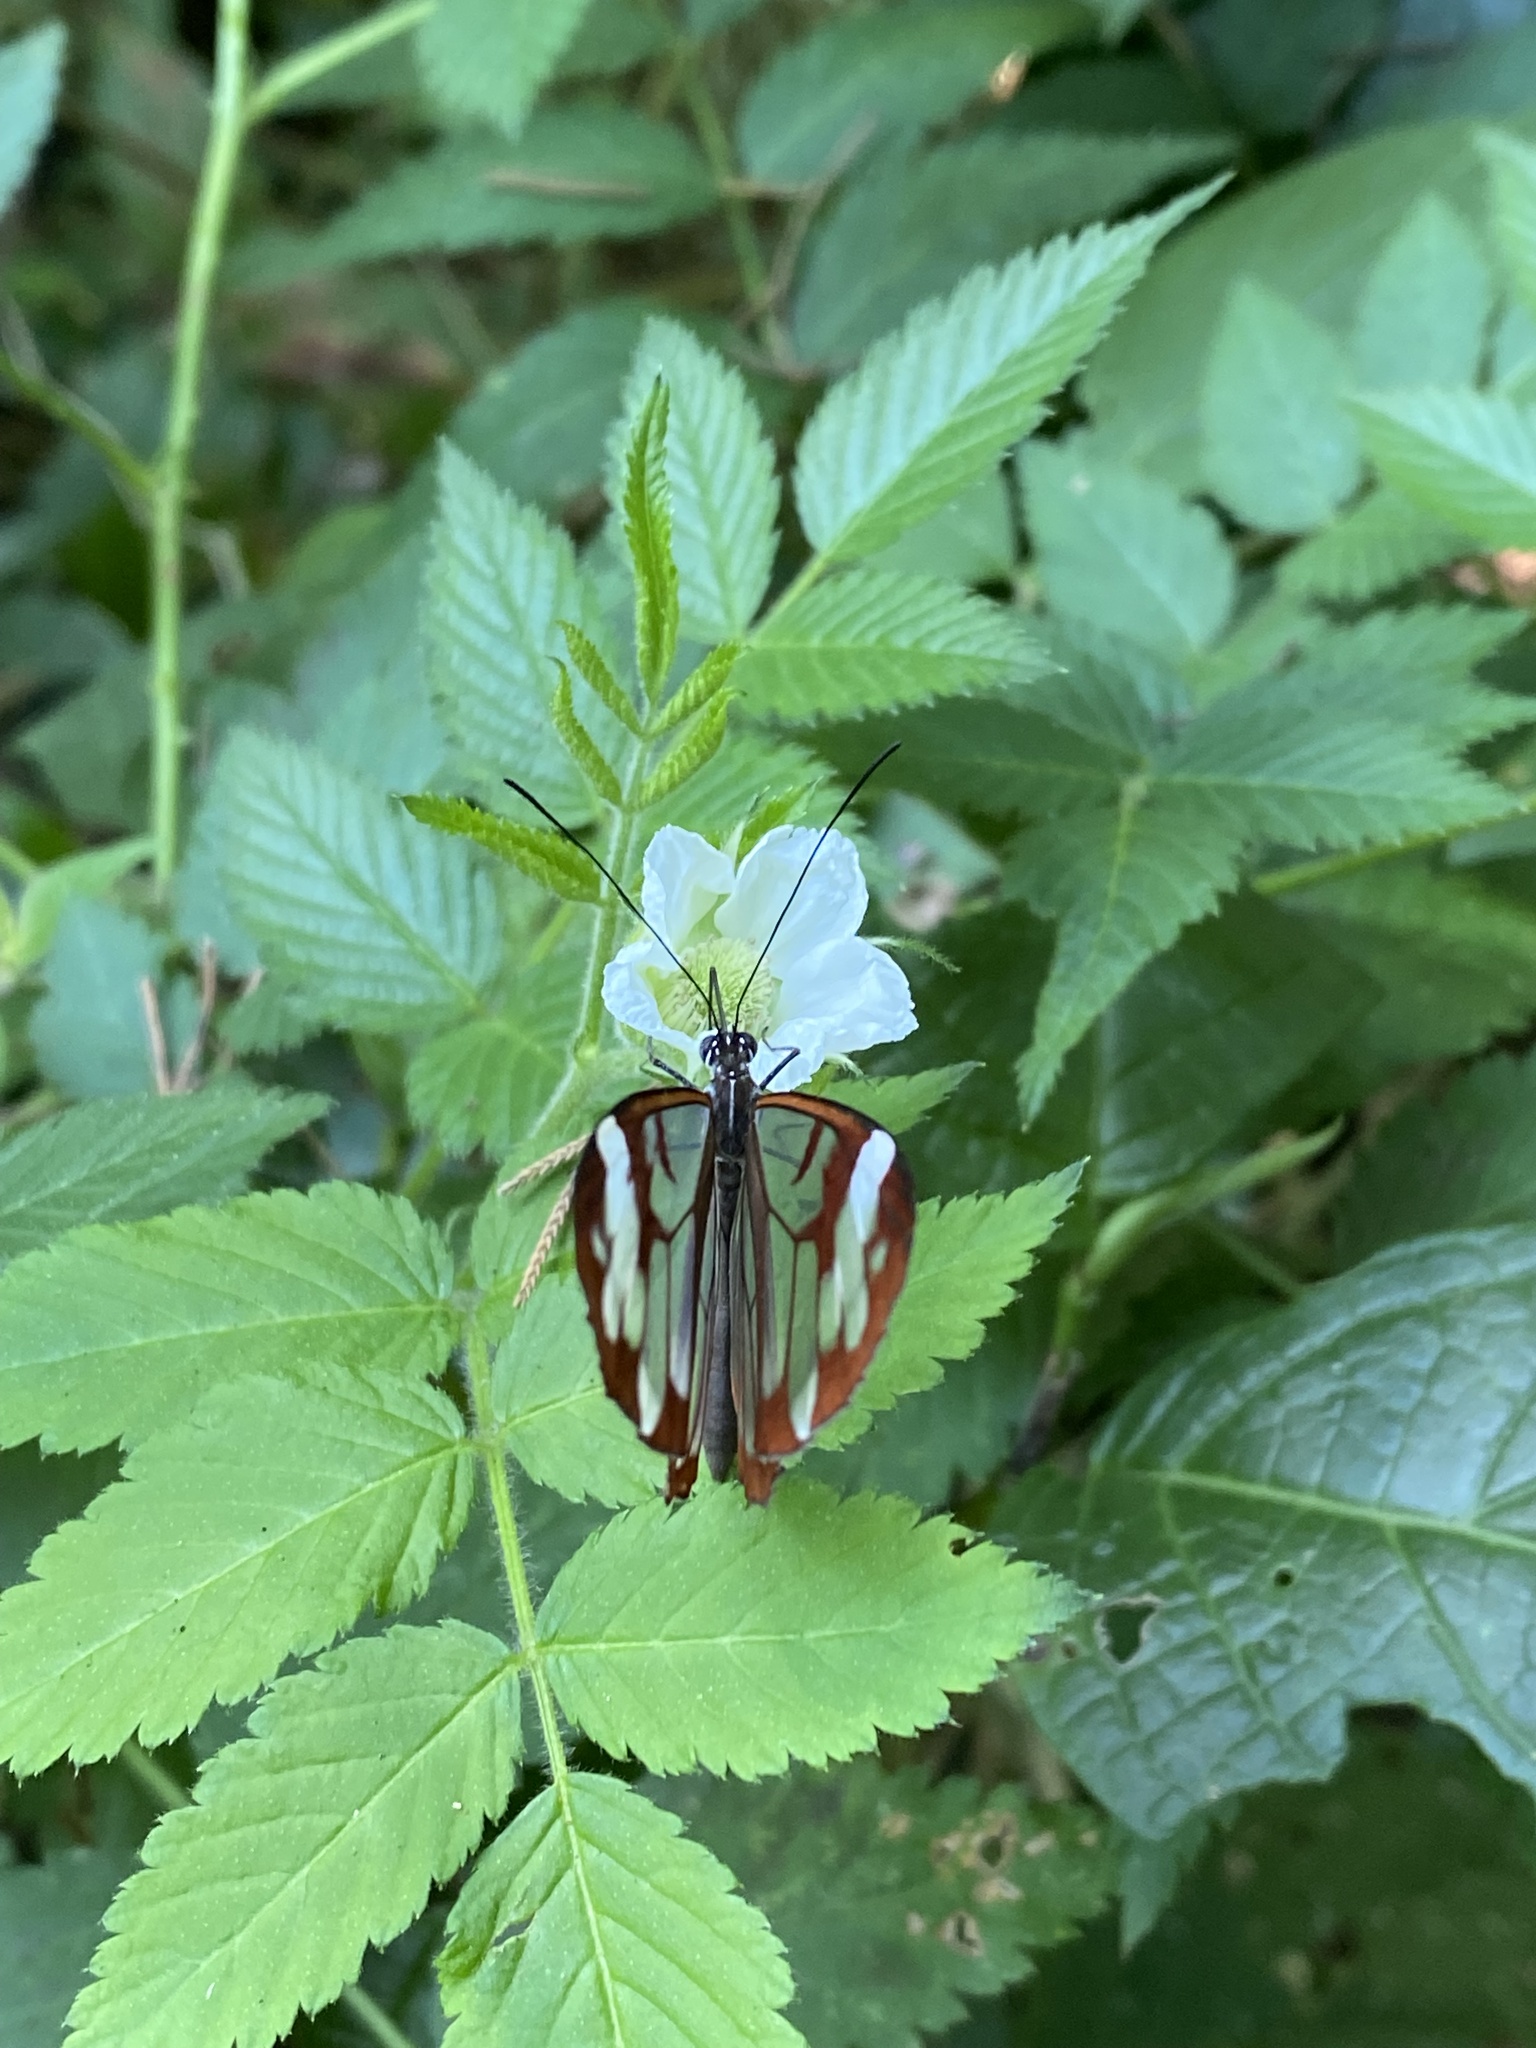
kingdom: Animalia
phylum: Arthropoda
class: Insecta
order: Lepidoptera
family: Nymphalidae
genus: Oleria
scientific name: Oleria zea
